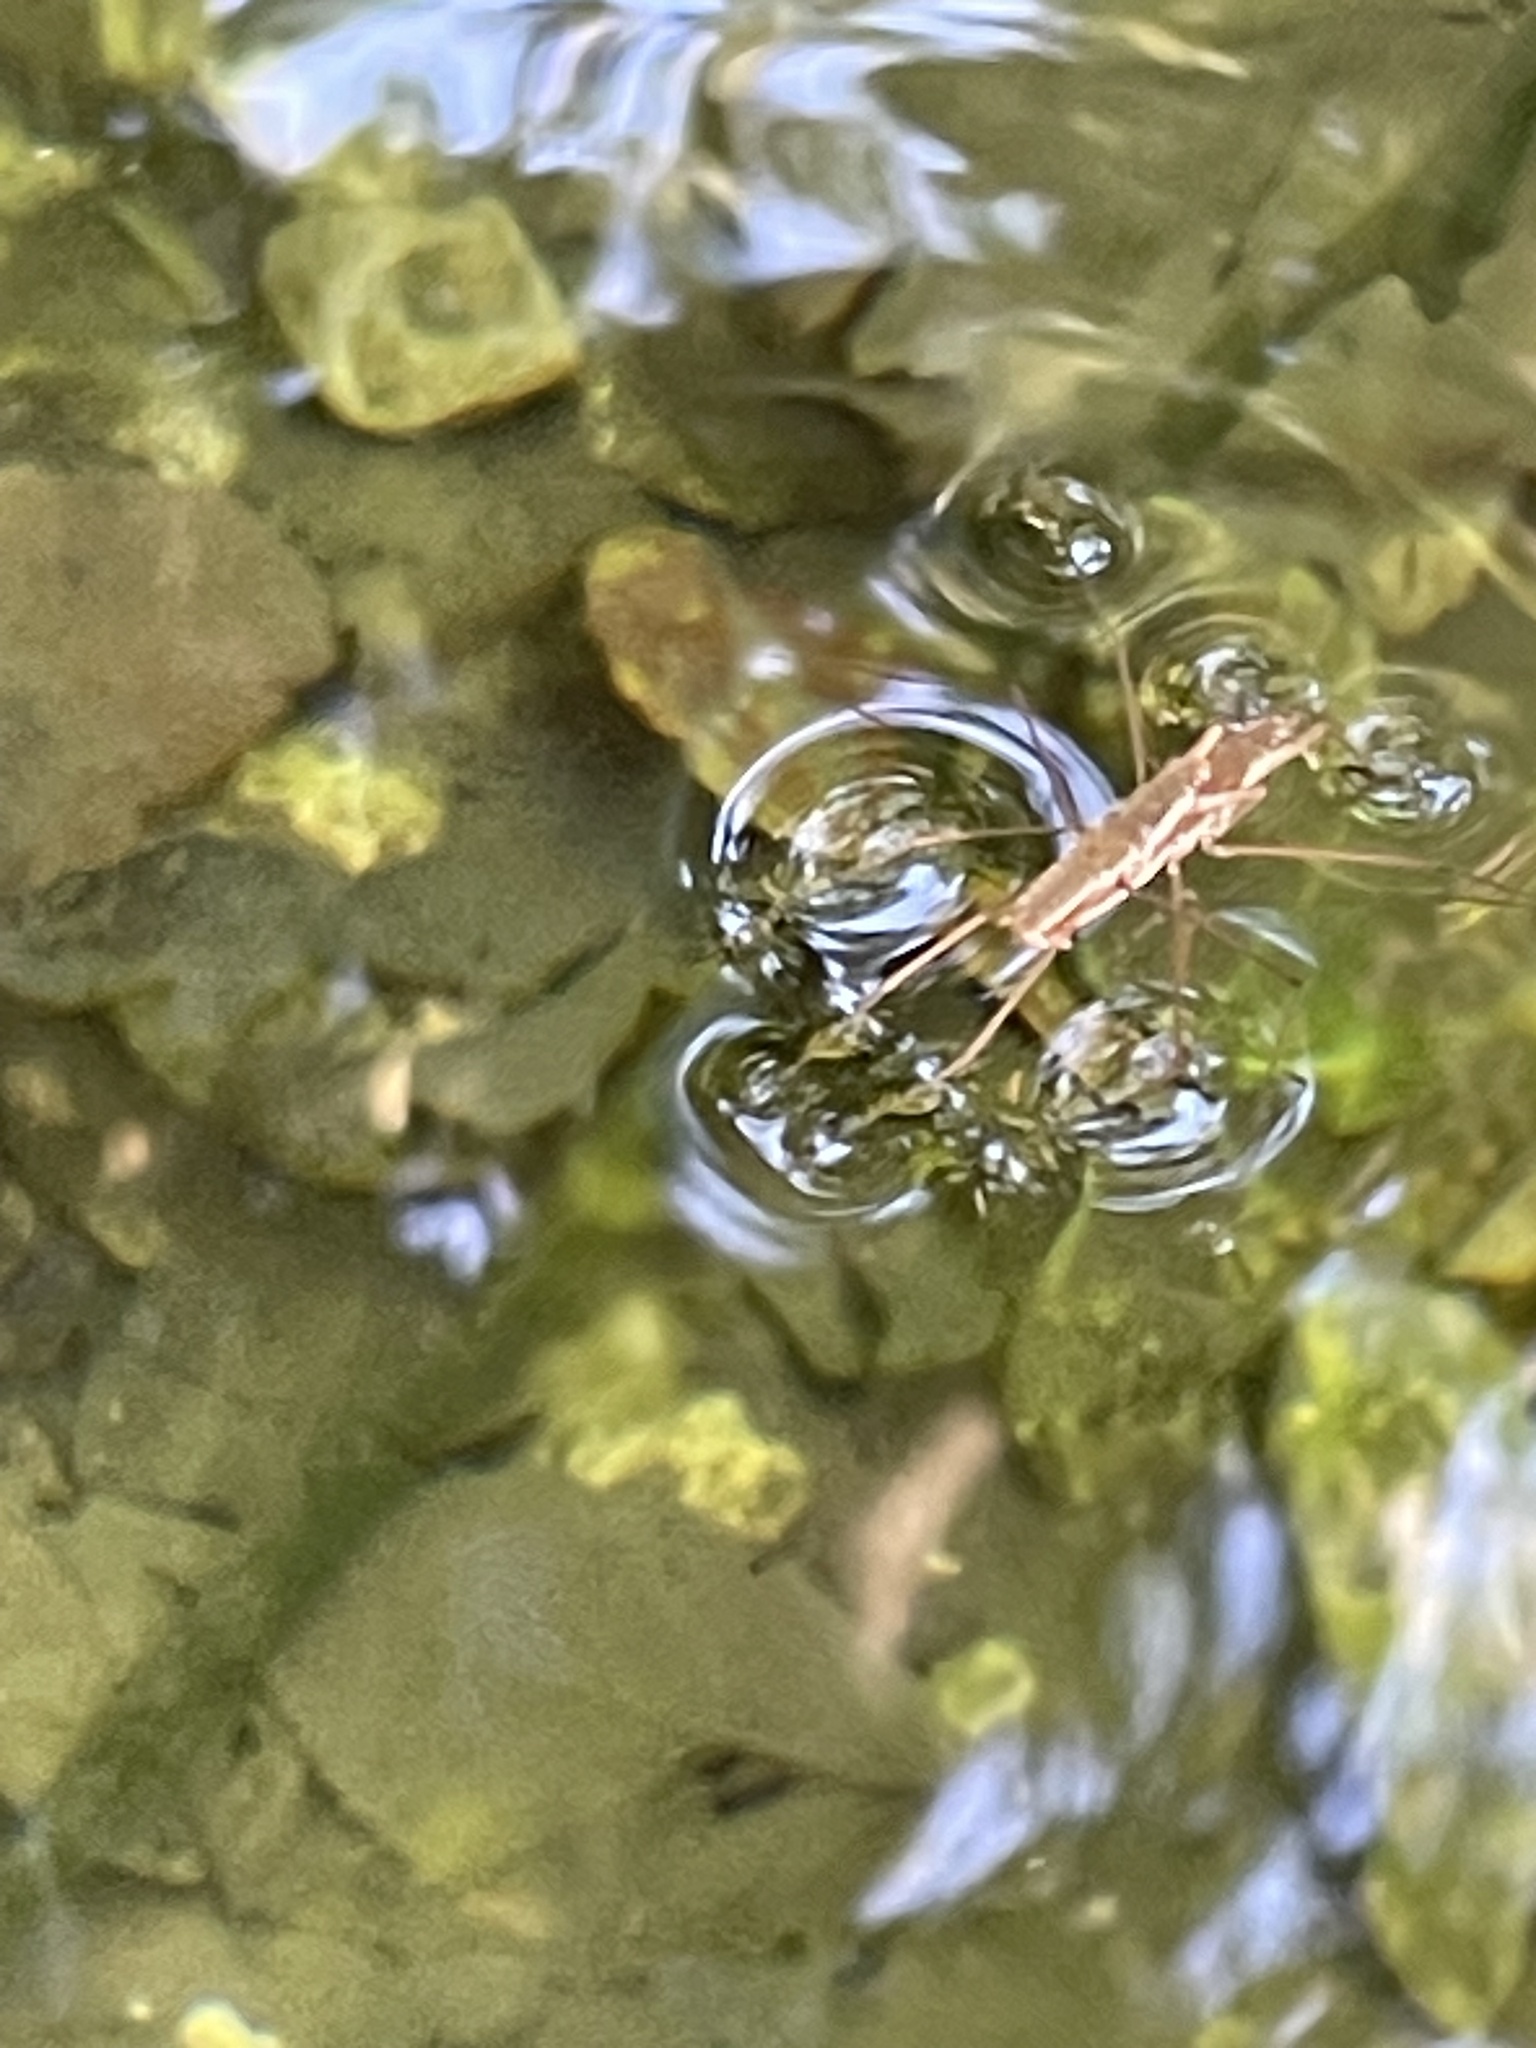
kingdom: Animalia
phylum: Arthropoda
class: Insecta
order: Hemiptera
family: Gerridae
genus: Aquarius
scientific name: Aquarius remigis
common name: Common water strider
